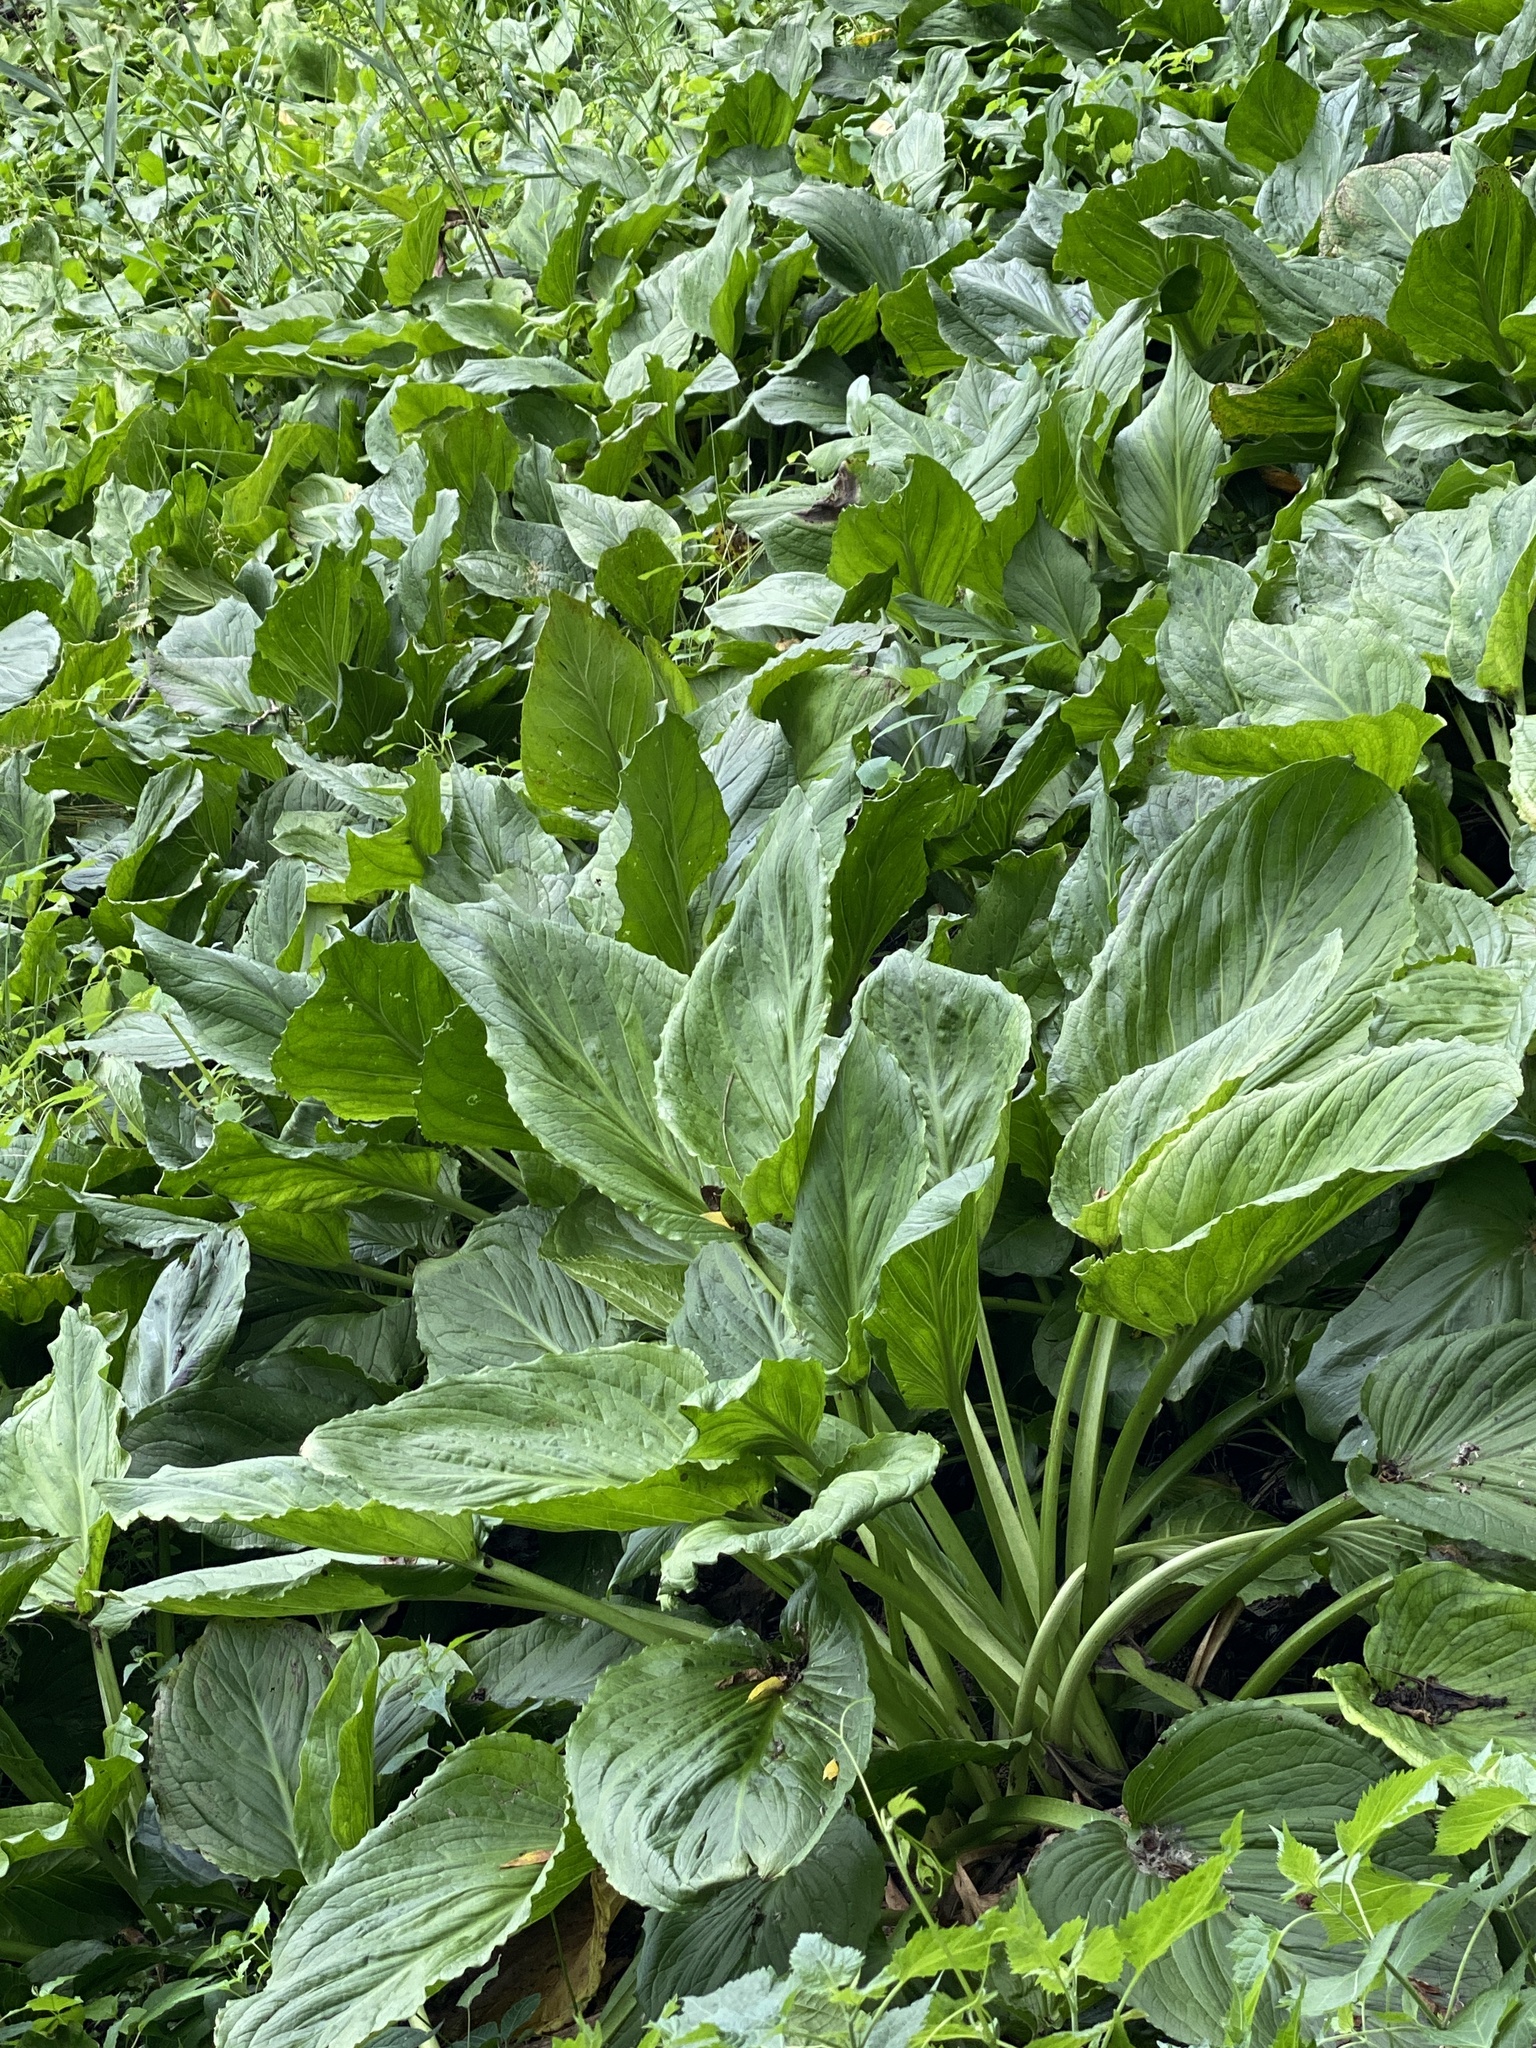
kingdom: Plantae
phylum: Tracheophyta
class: Liliopsida
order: Alismatales
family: Araceae
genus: Symplocarpus
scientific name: Symplocarpus foetidus
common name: Eastern skunk cabbage
